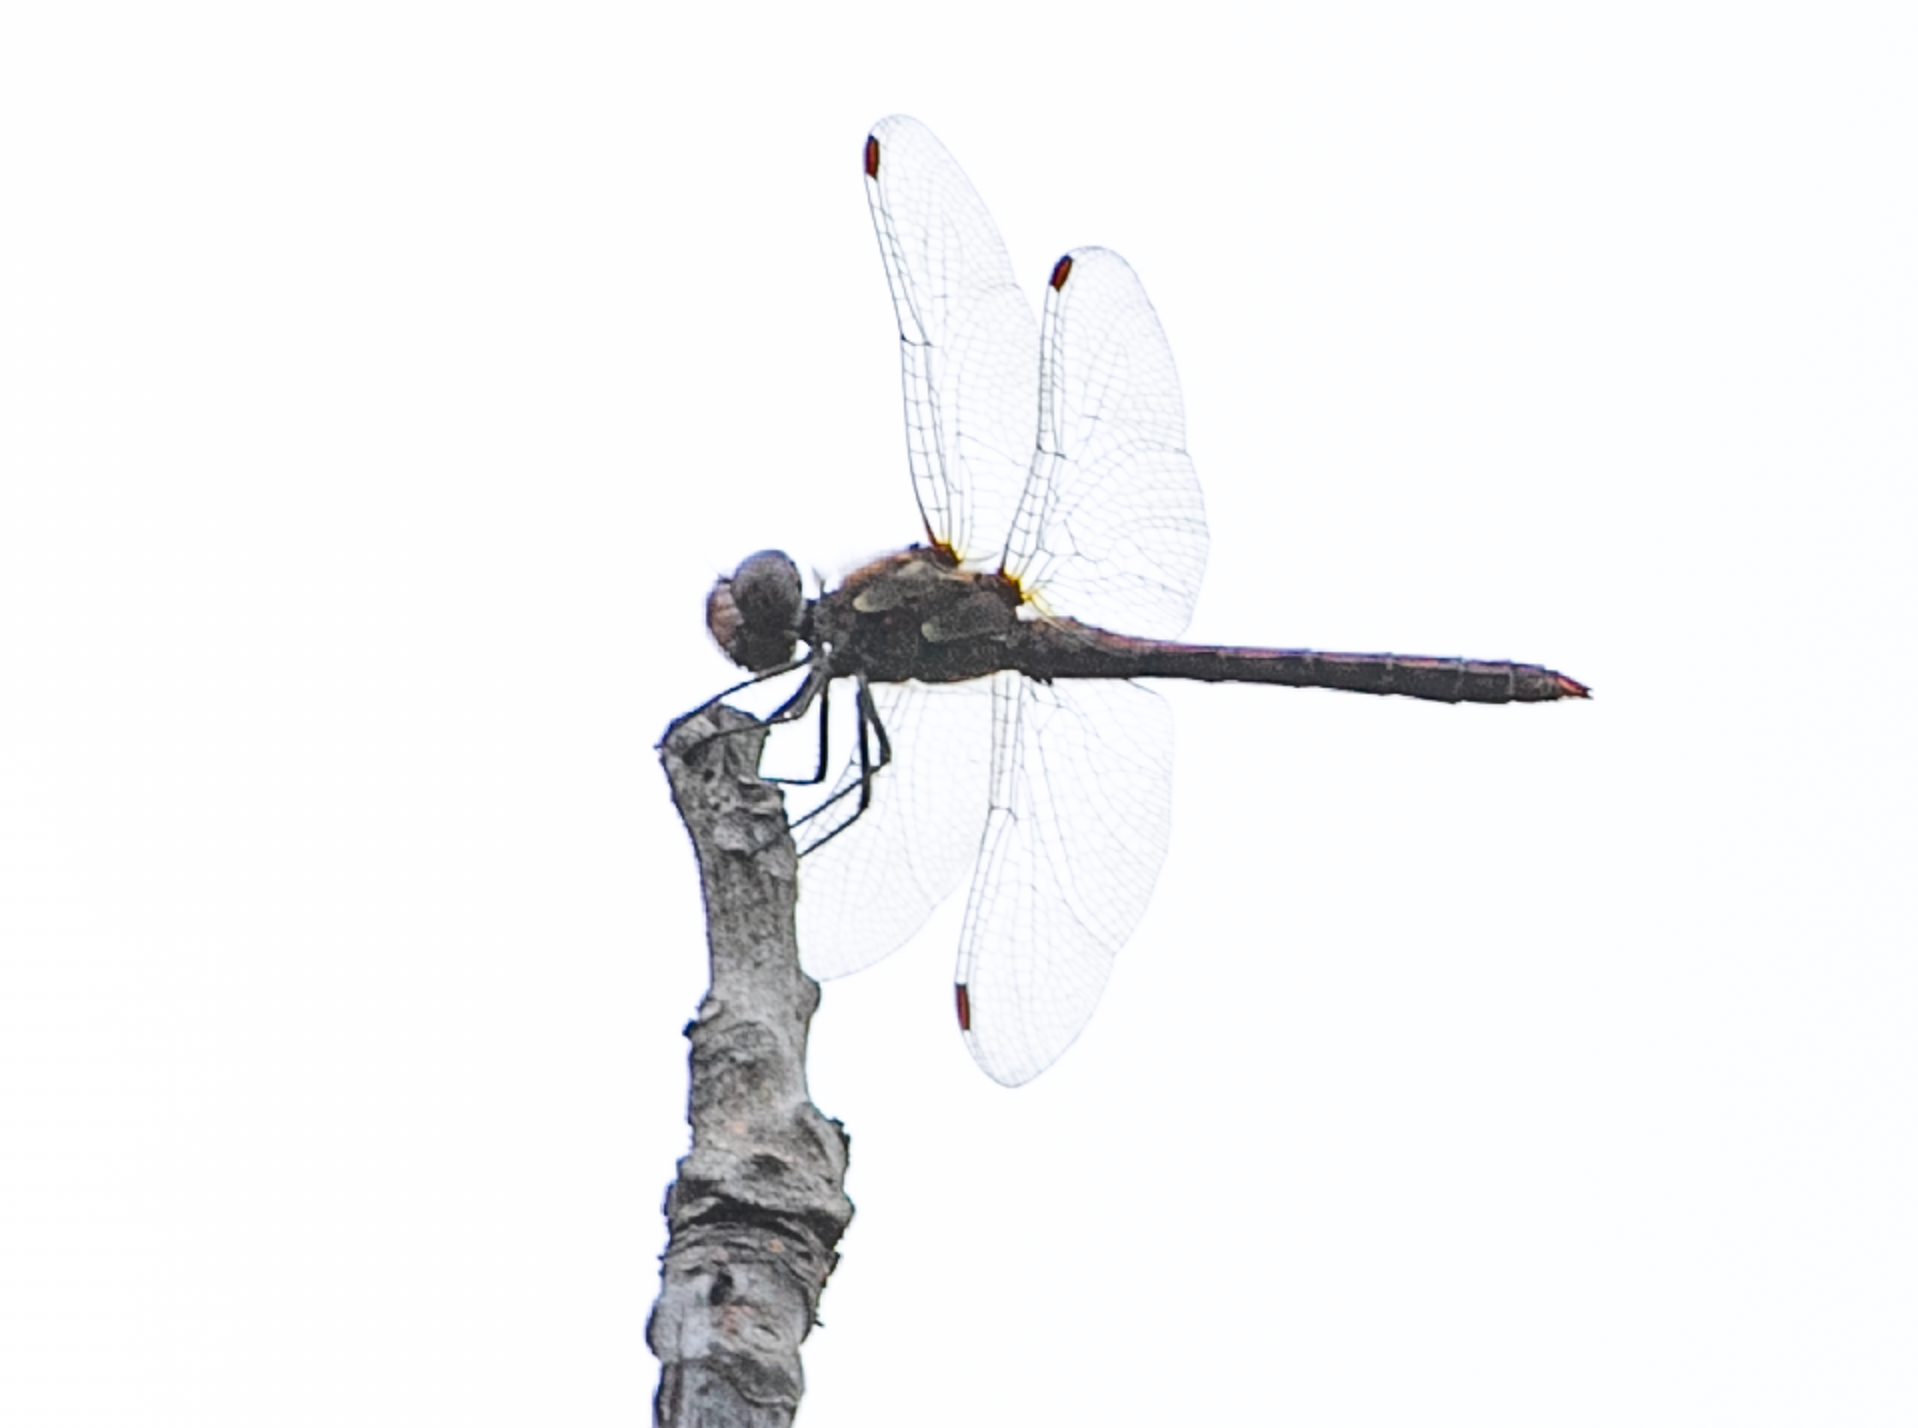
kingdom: Animalia
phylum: Arthropoda
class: Insecta
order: Odonata
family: Libellulidae
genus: Sympetrum
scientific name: Sympetrum striolatum
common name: Common darter
